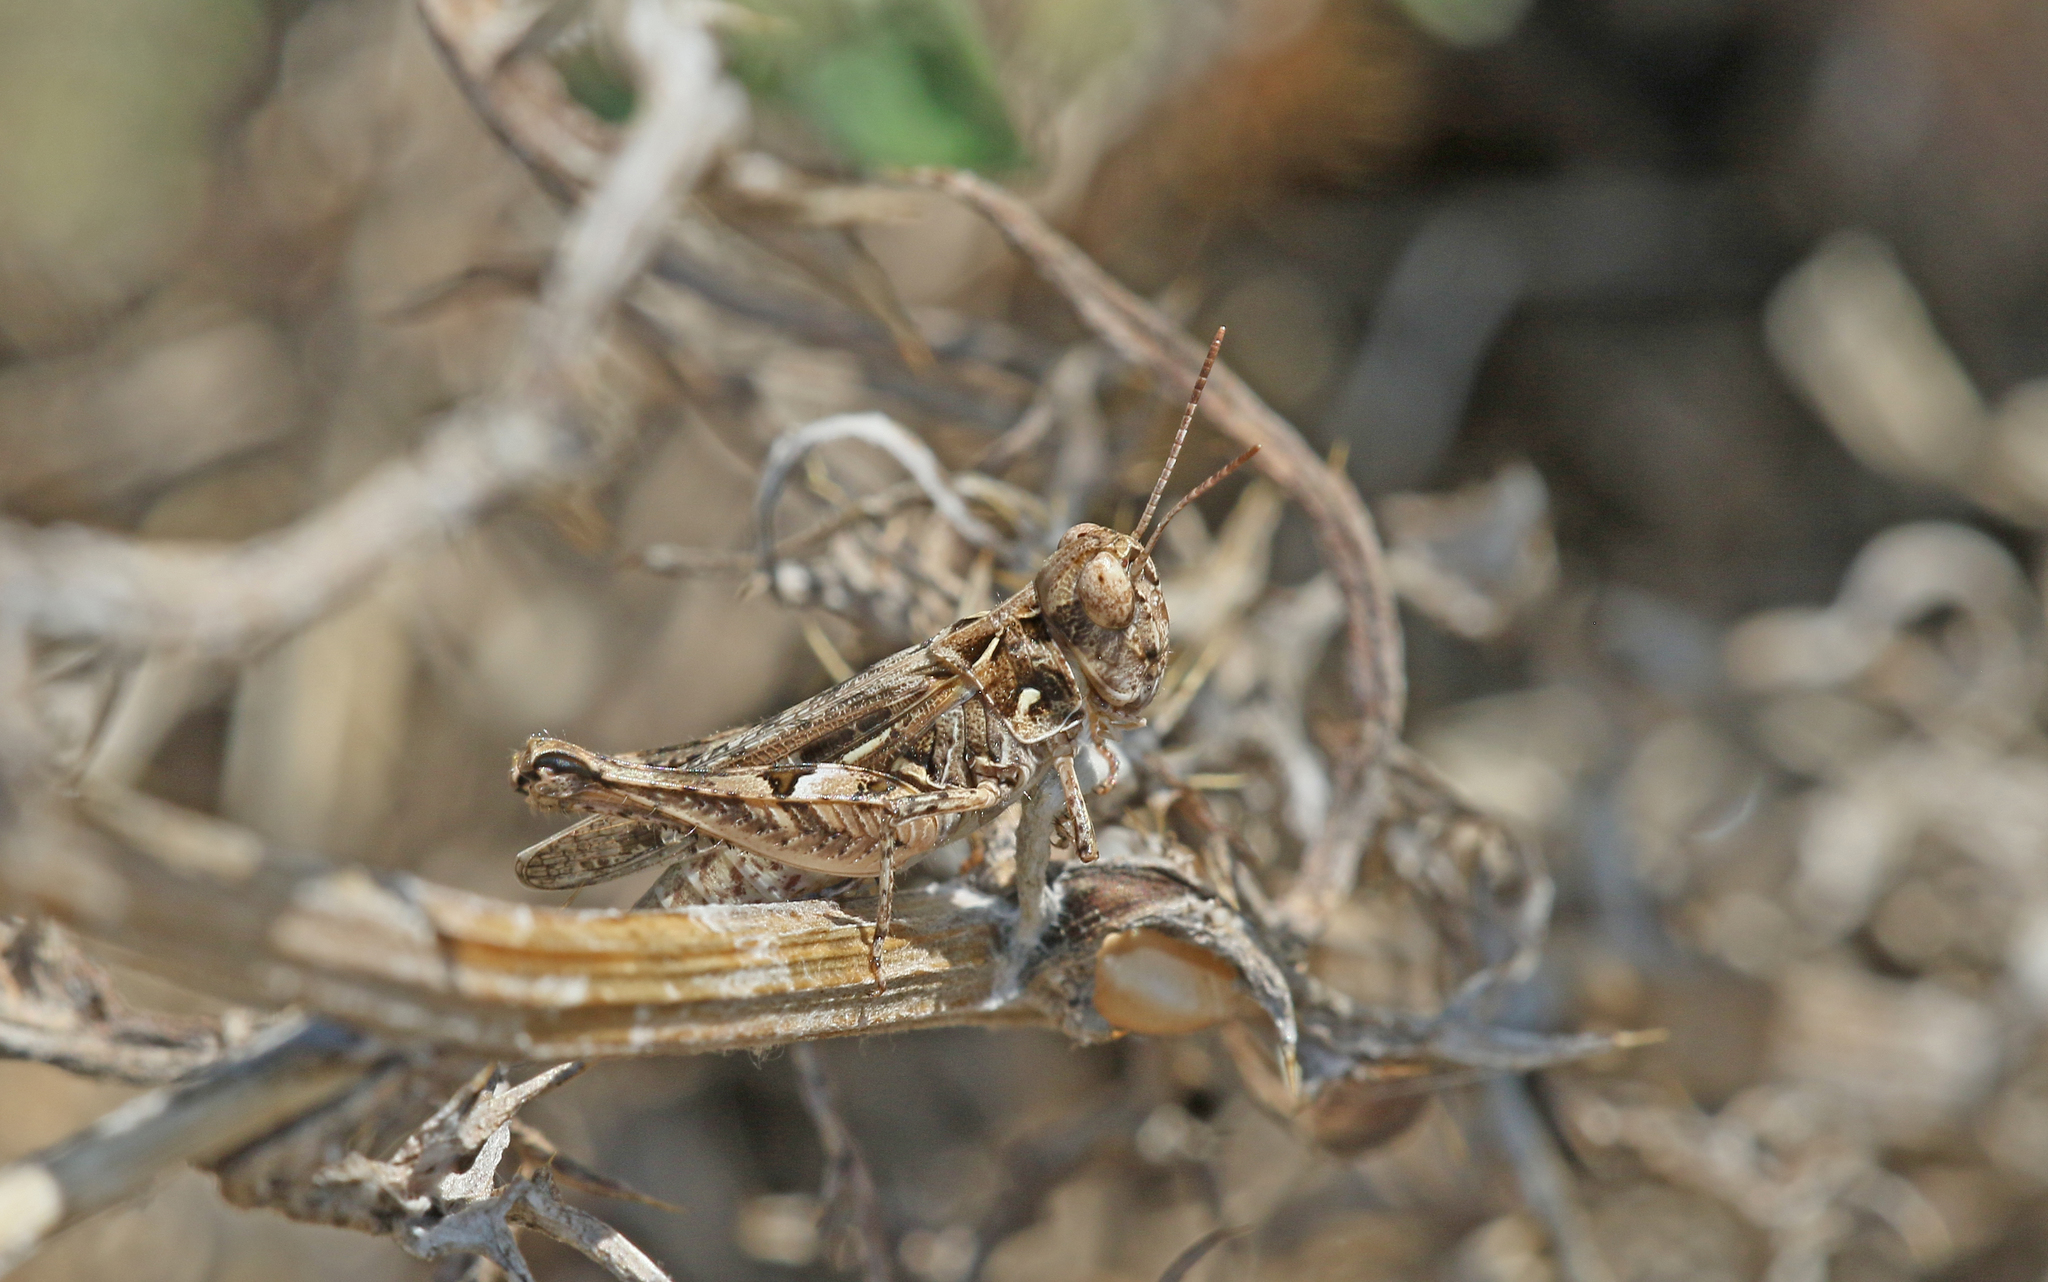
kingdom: Animalia
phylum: Arthropoda
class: Insecta
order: Orthoptera
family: Acrididae
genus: Dociostaurus
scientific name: Dociostaurus jagoi
